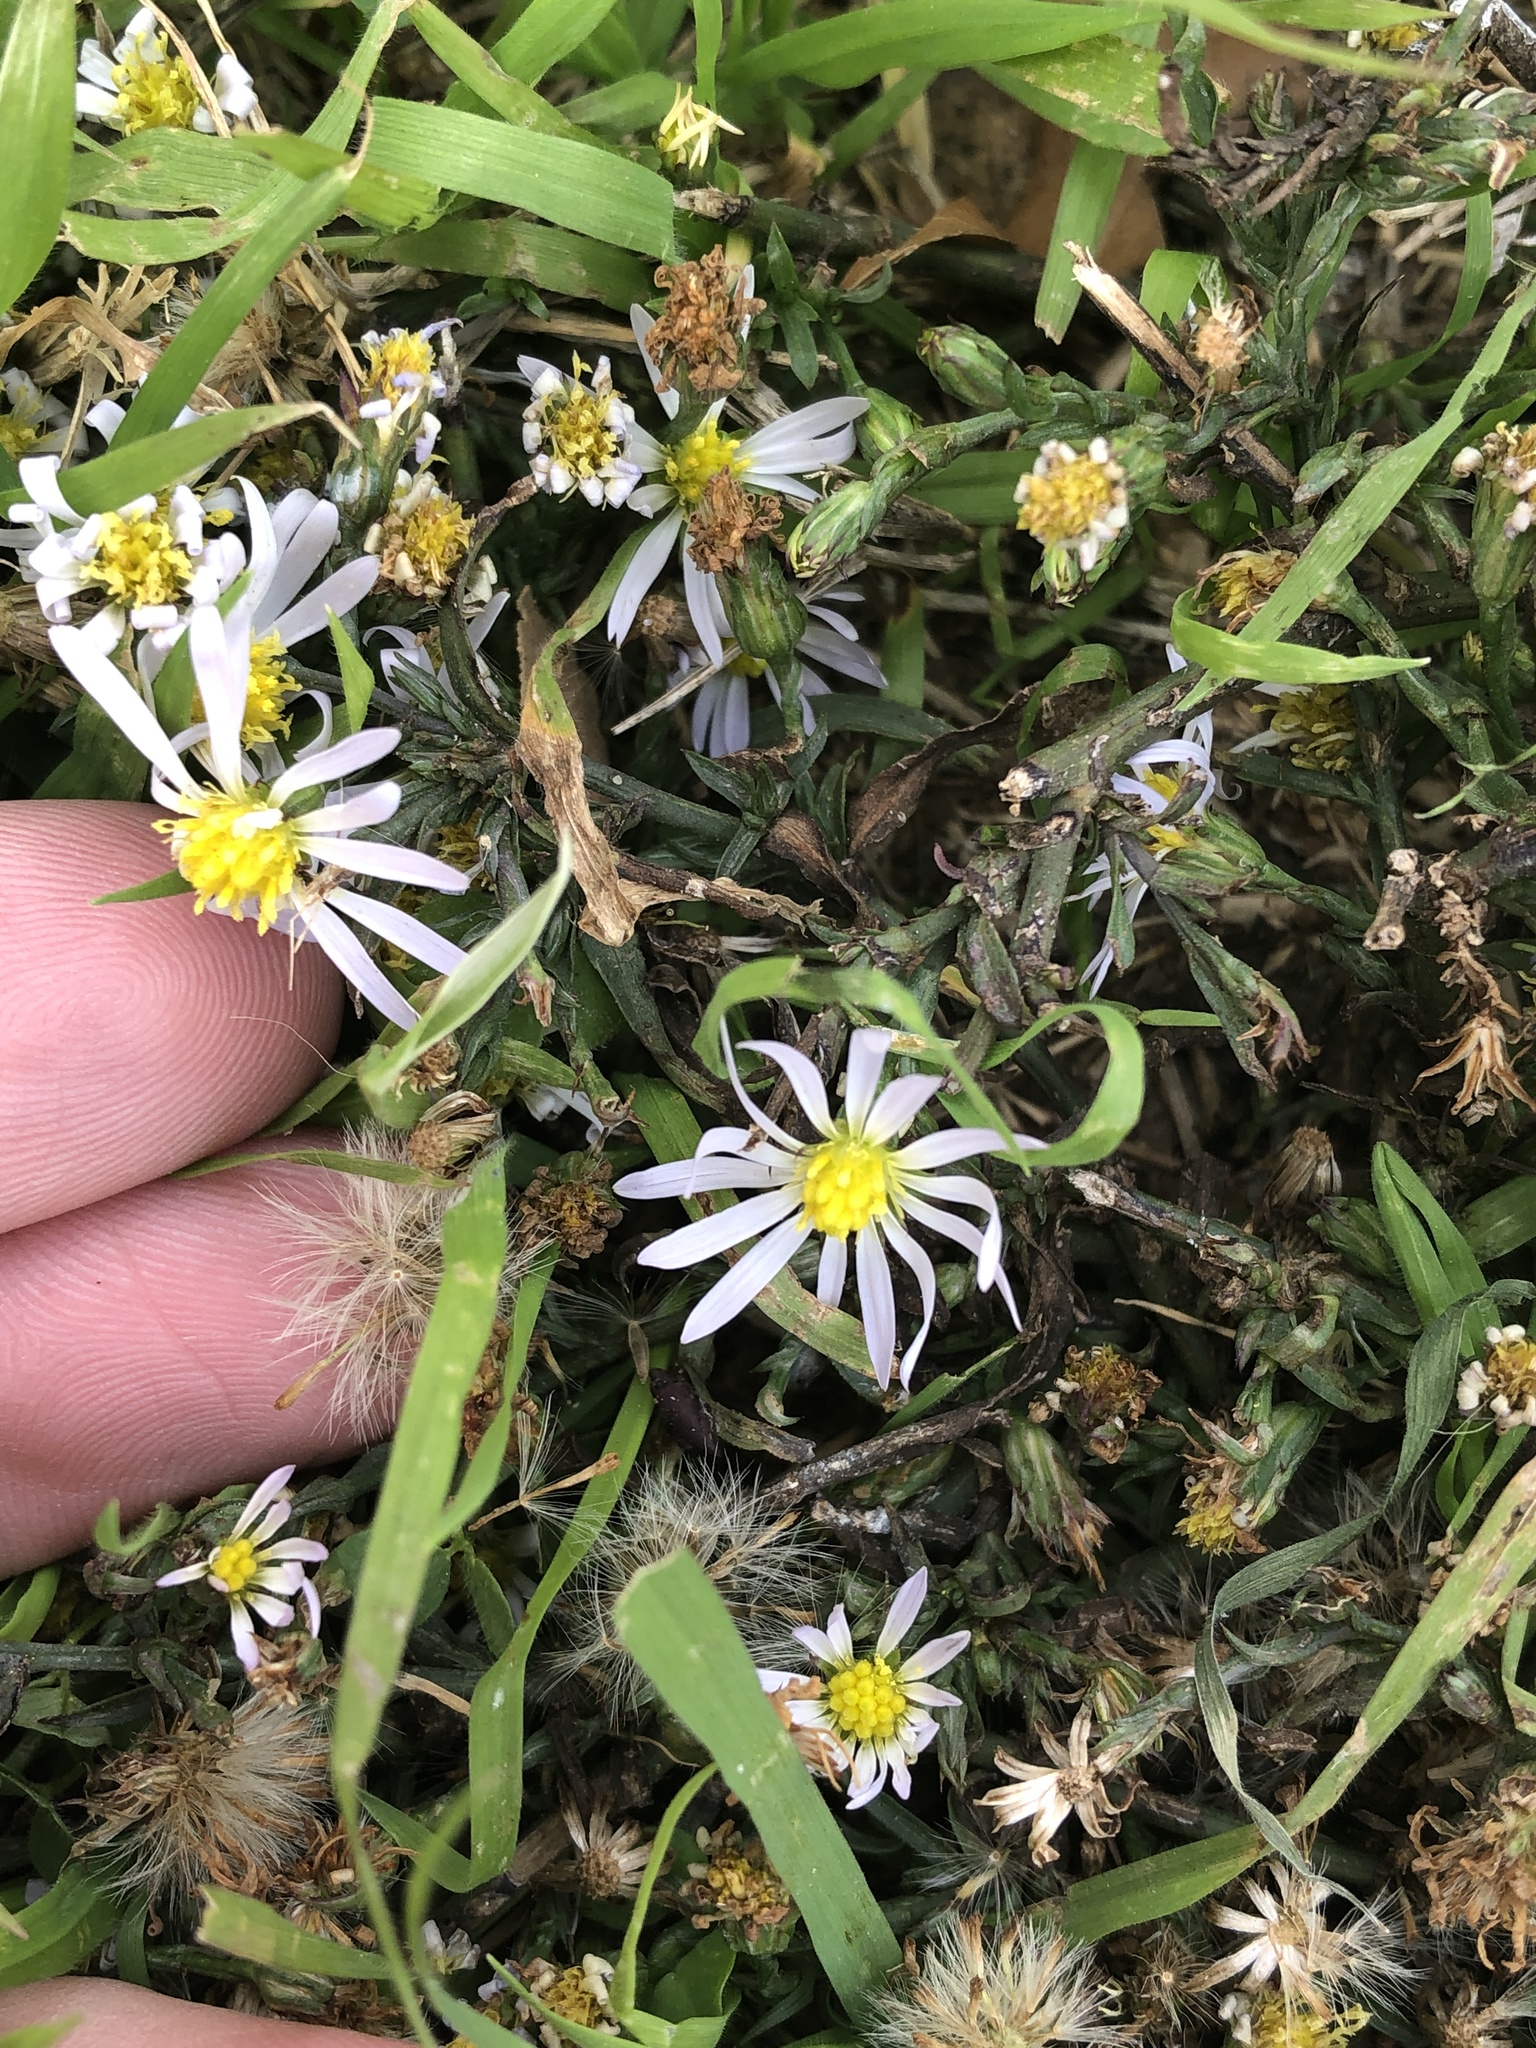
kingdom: Plantae
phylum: Tracheophyta
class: Magnoliopsida
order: Asterales
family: Asteraceae
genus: Symphyotrichum
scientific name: Symphyotrichum divaricatum
